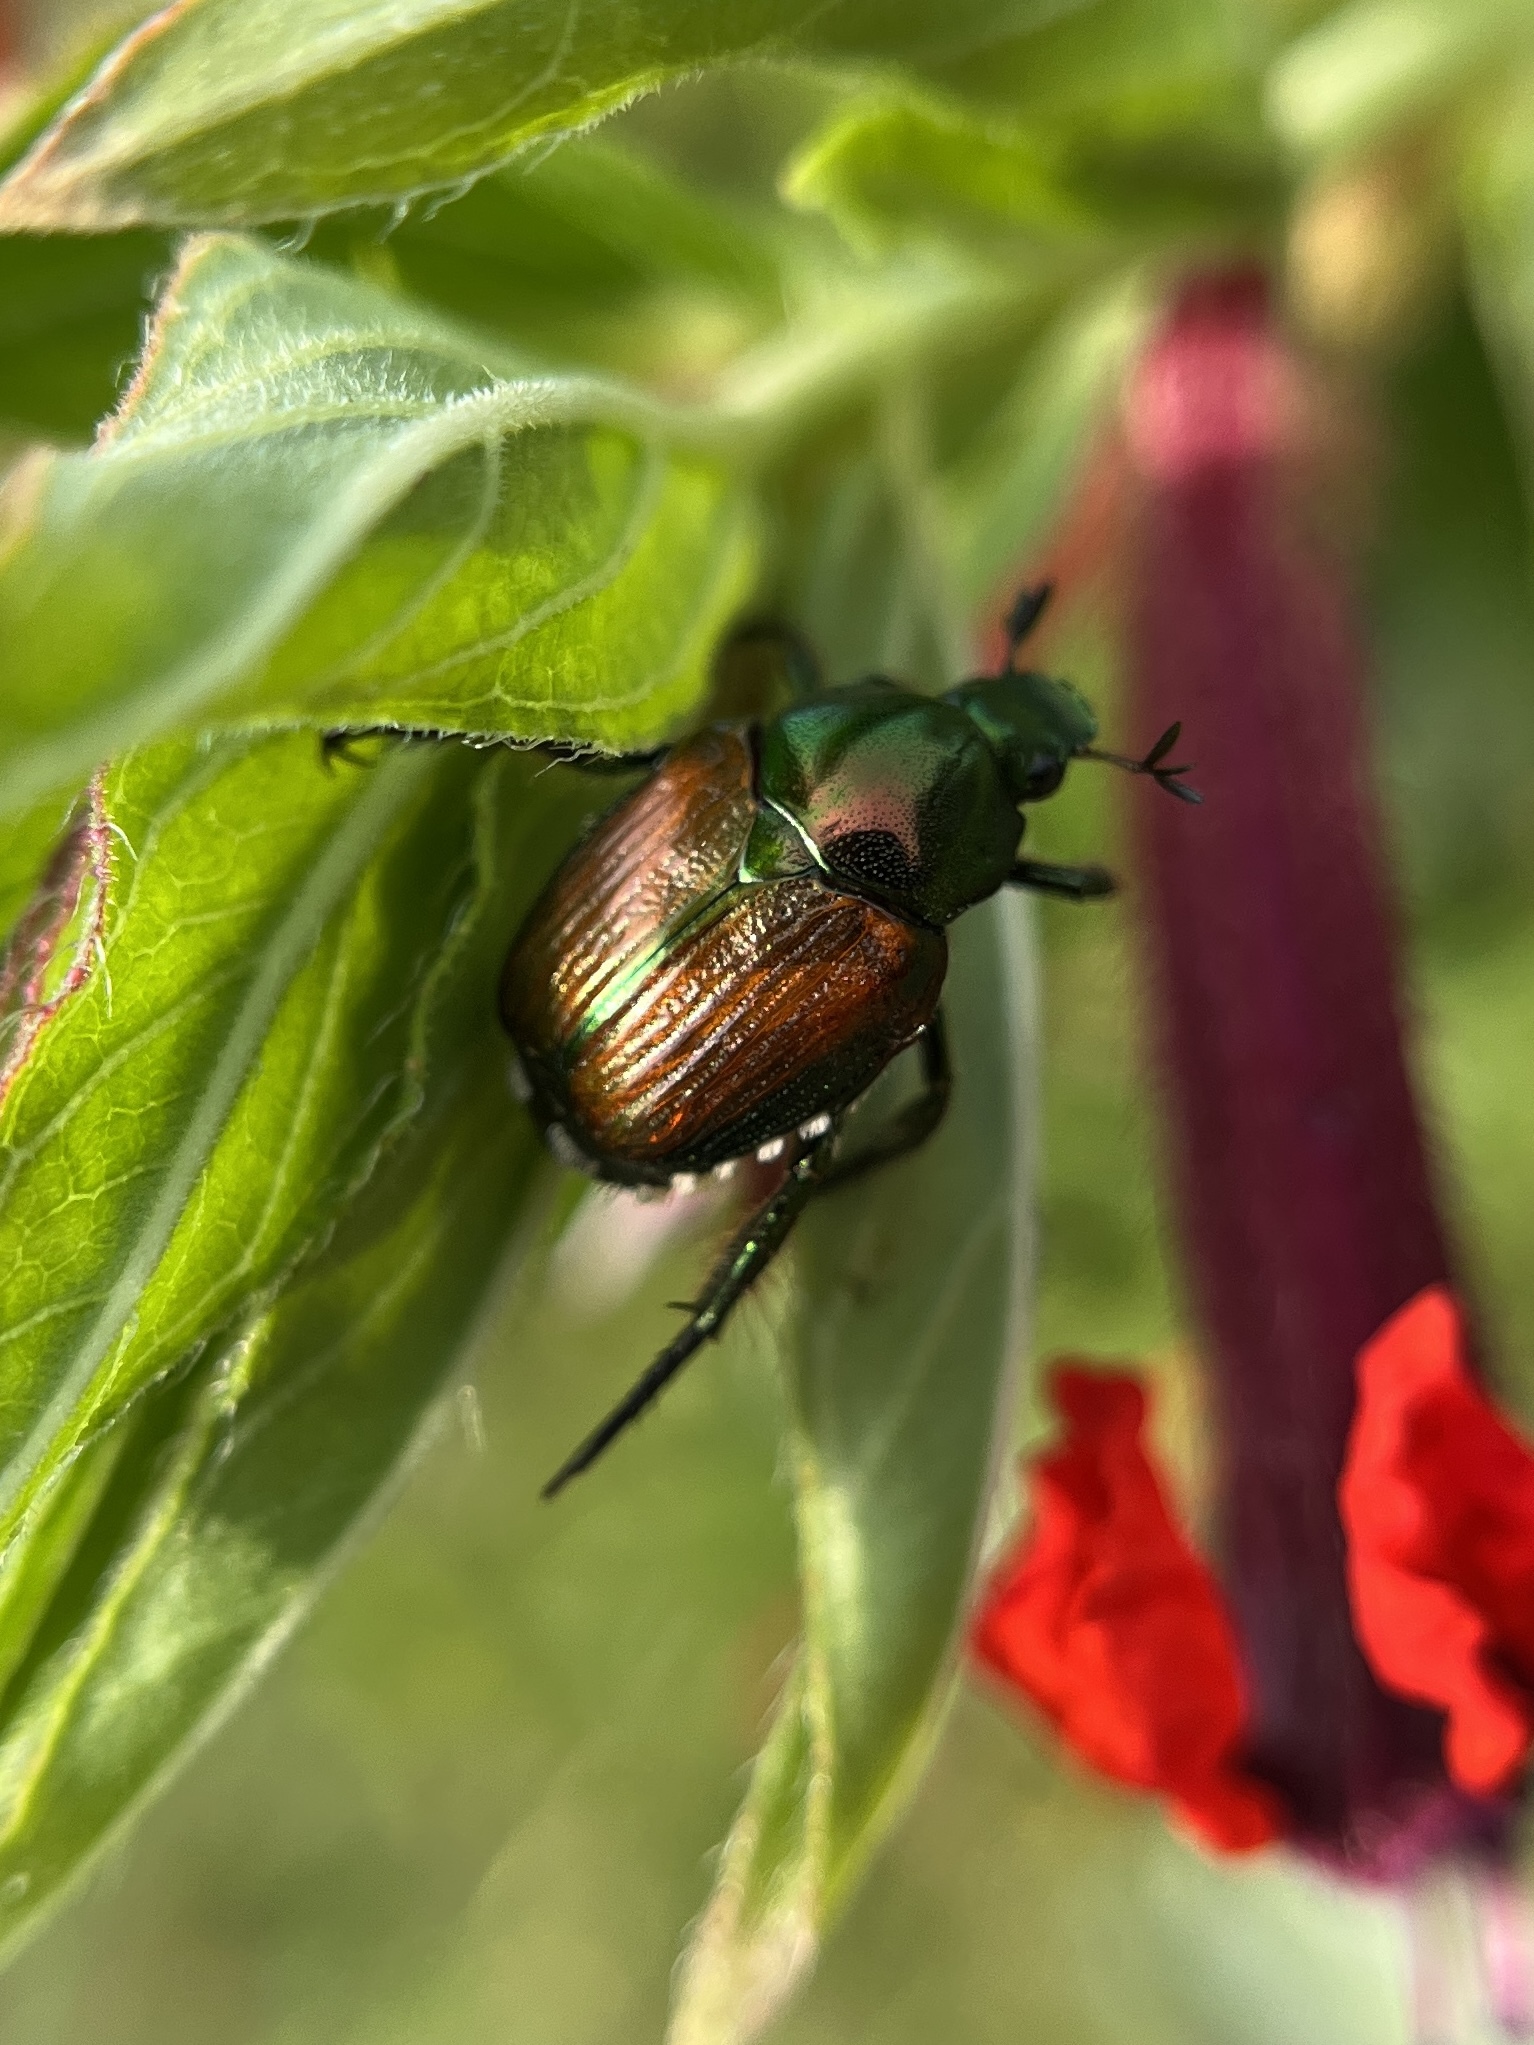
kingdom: Animalia
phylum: Arthropoda
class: Insecta
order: Coleoptera
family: Scarabaeidae
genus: Popillia
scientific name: Popillia japonica
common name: Japanese beetle
